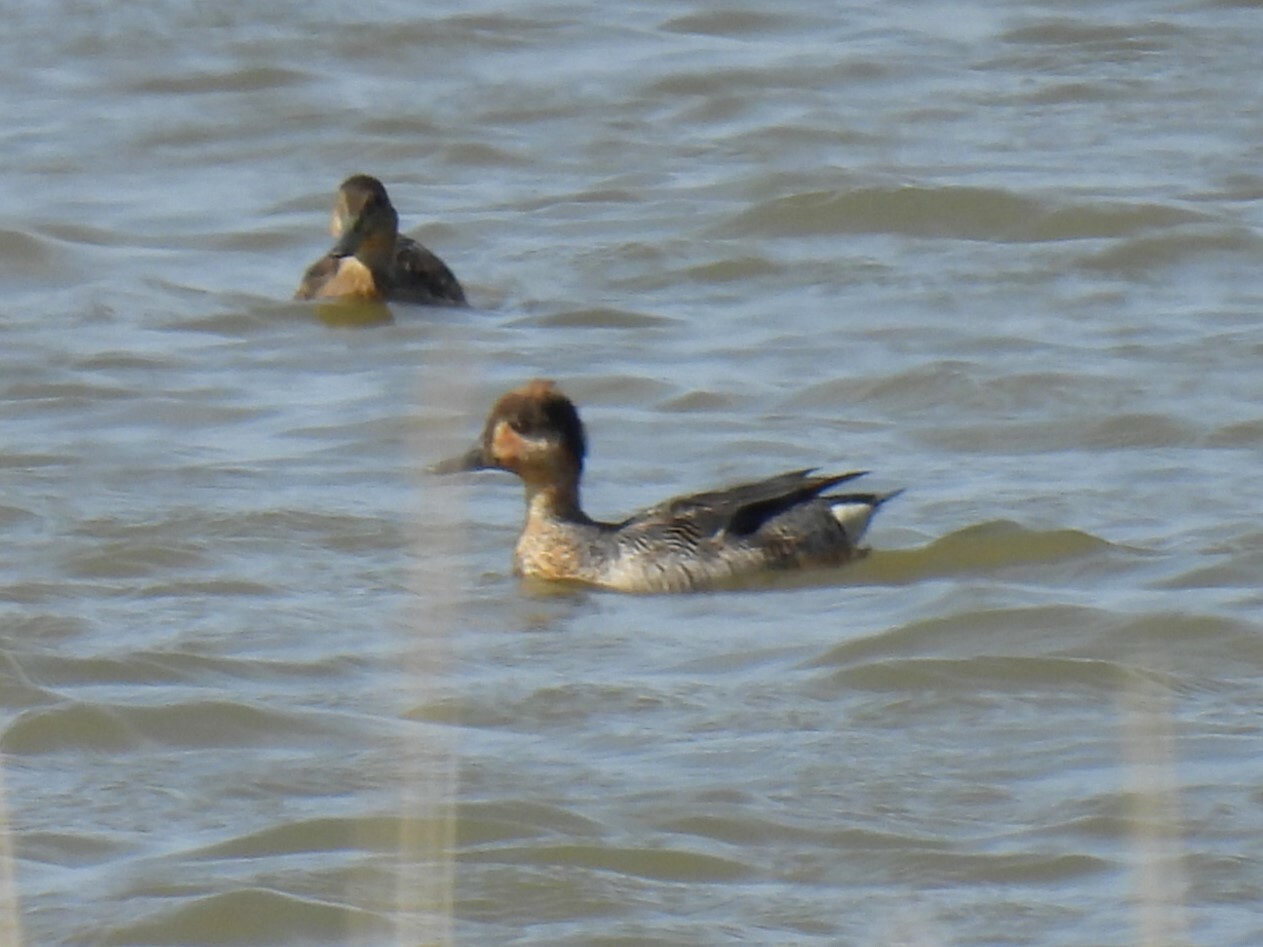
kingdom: Animalia
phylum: Chordata
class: Aves
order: Anseriformes
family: Anatidae
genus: Anas
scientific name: Anas crecca
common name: Eurasian teal
